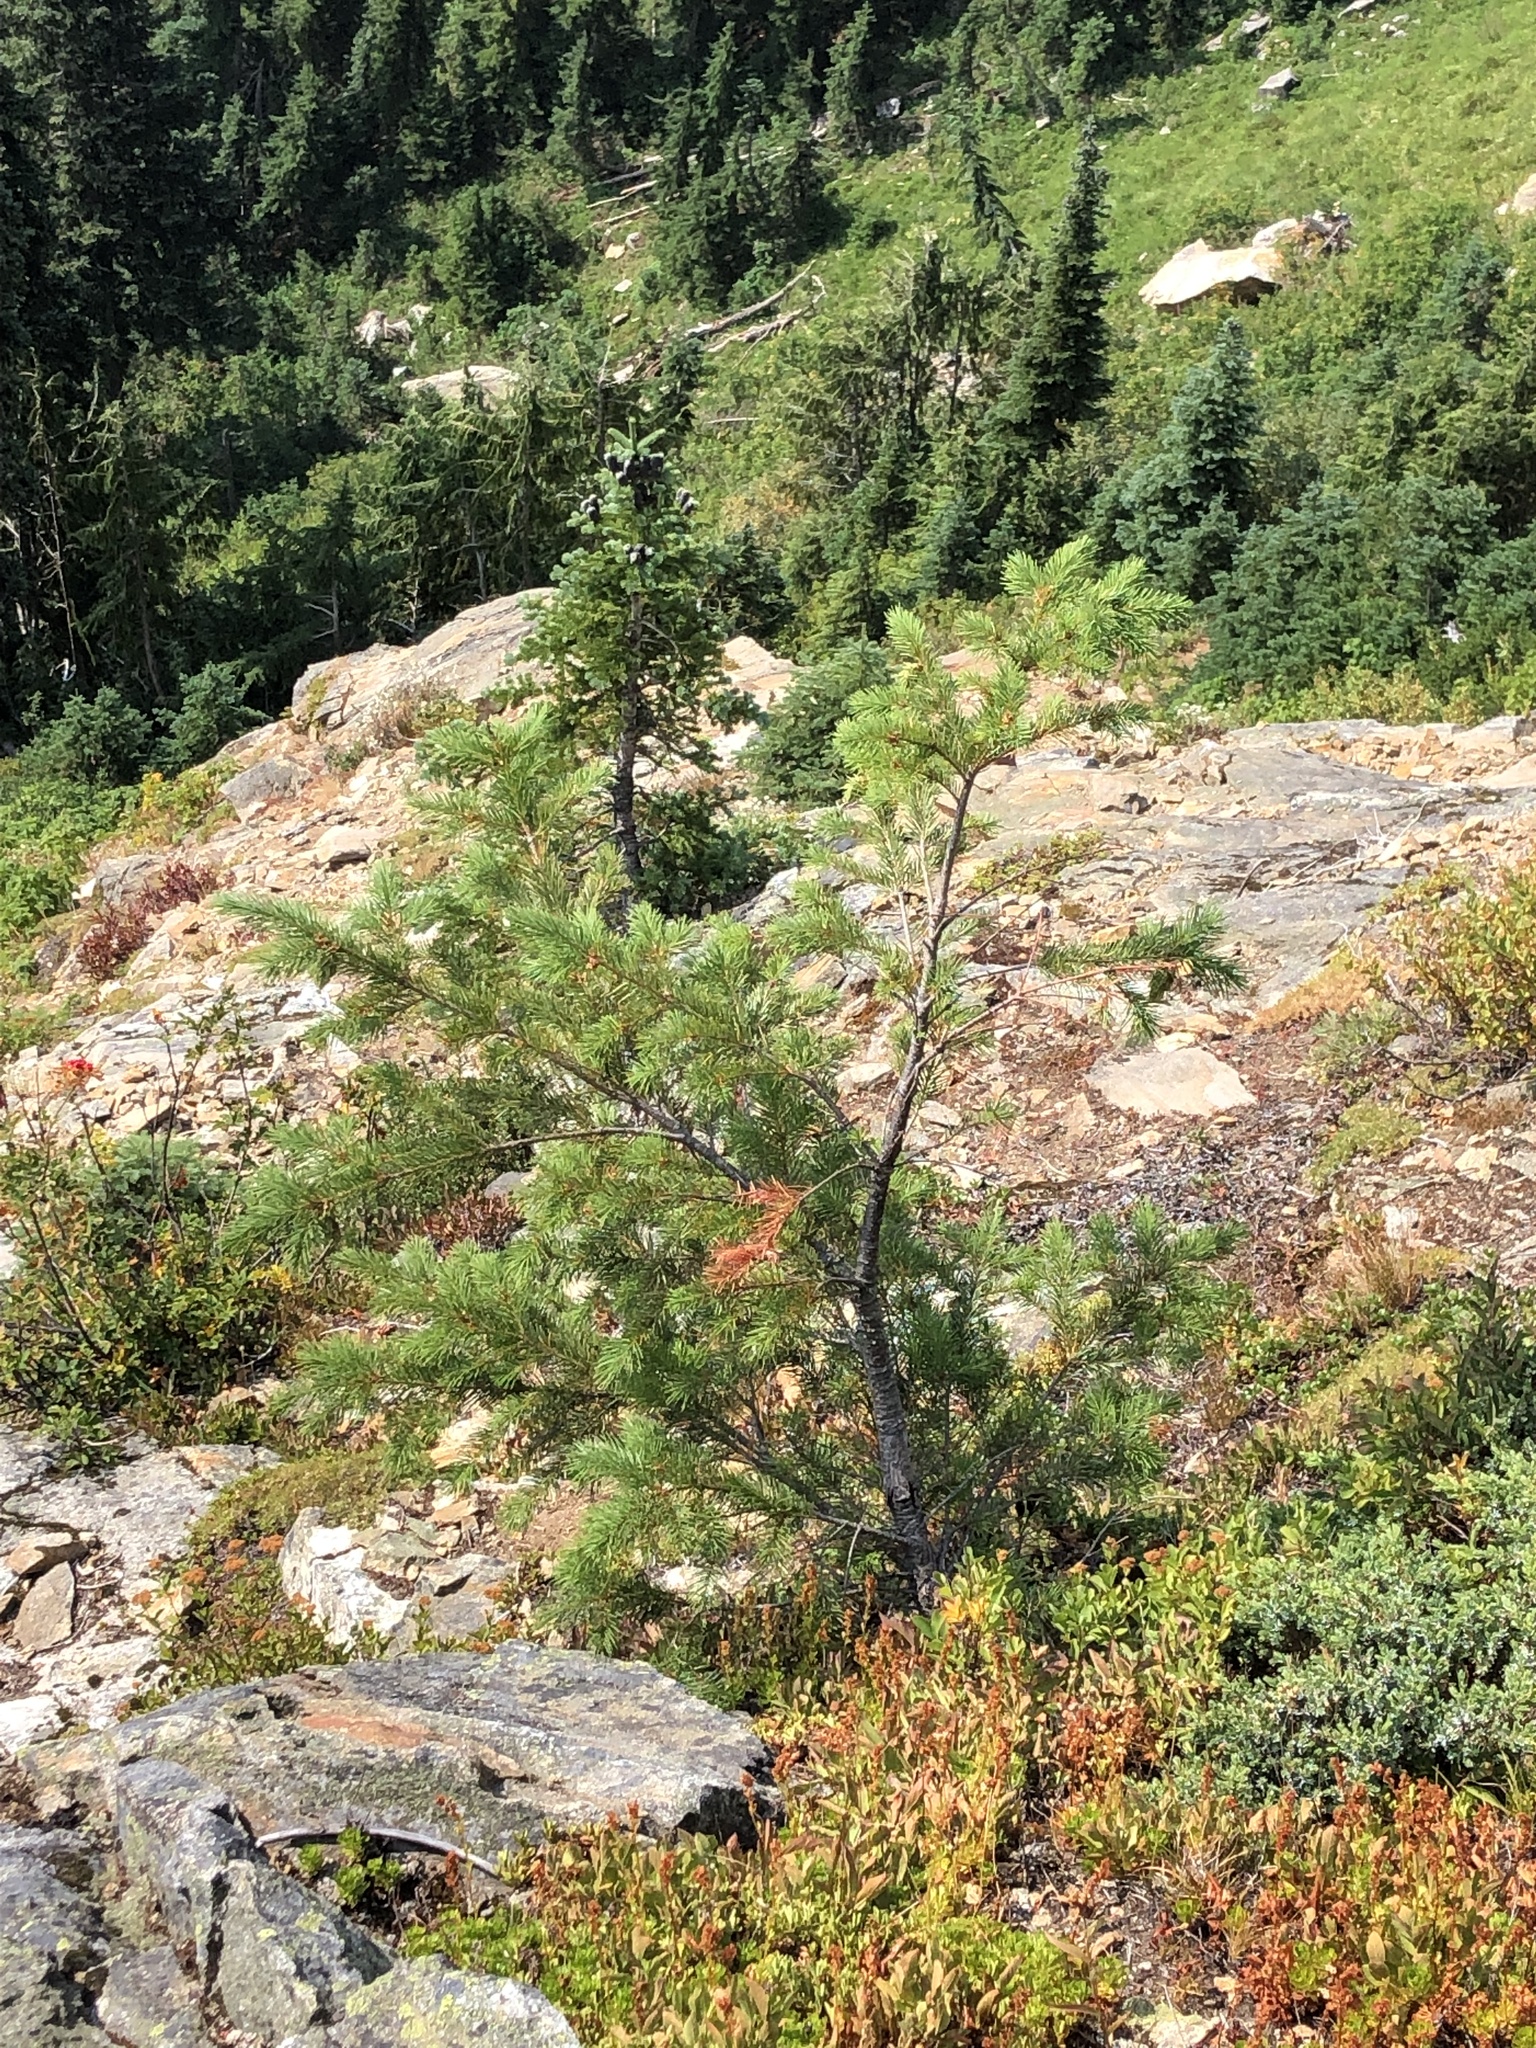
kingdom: Plantae
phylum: Tracheophyta
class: Pinopsida
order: Pinales
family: Pinaceae
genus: Pseudotsuga
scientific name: Pseudotsuga menziesii
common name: Douglas fir
